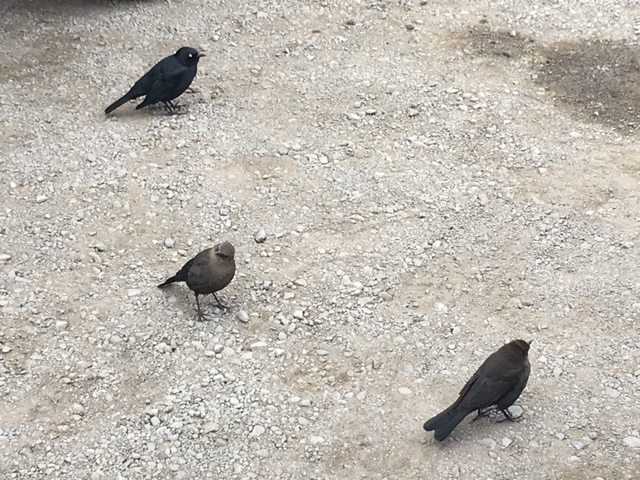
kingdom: Animalia
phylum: Chordata
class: Aves
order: Passeriformes
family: Icteridae
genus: Euphagus
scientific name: Euphagus cyanocephalus
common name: Brewer's blackbird
